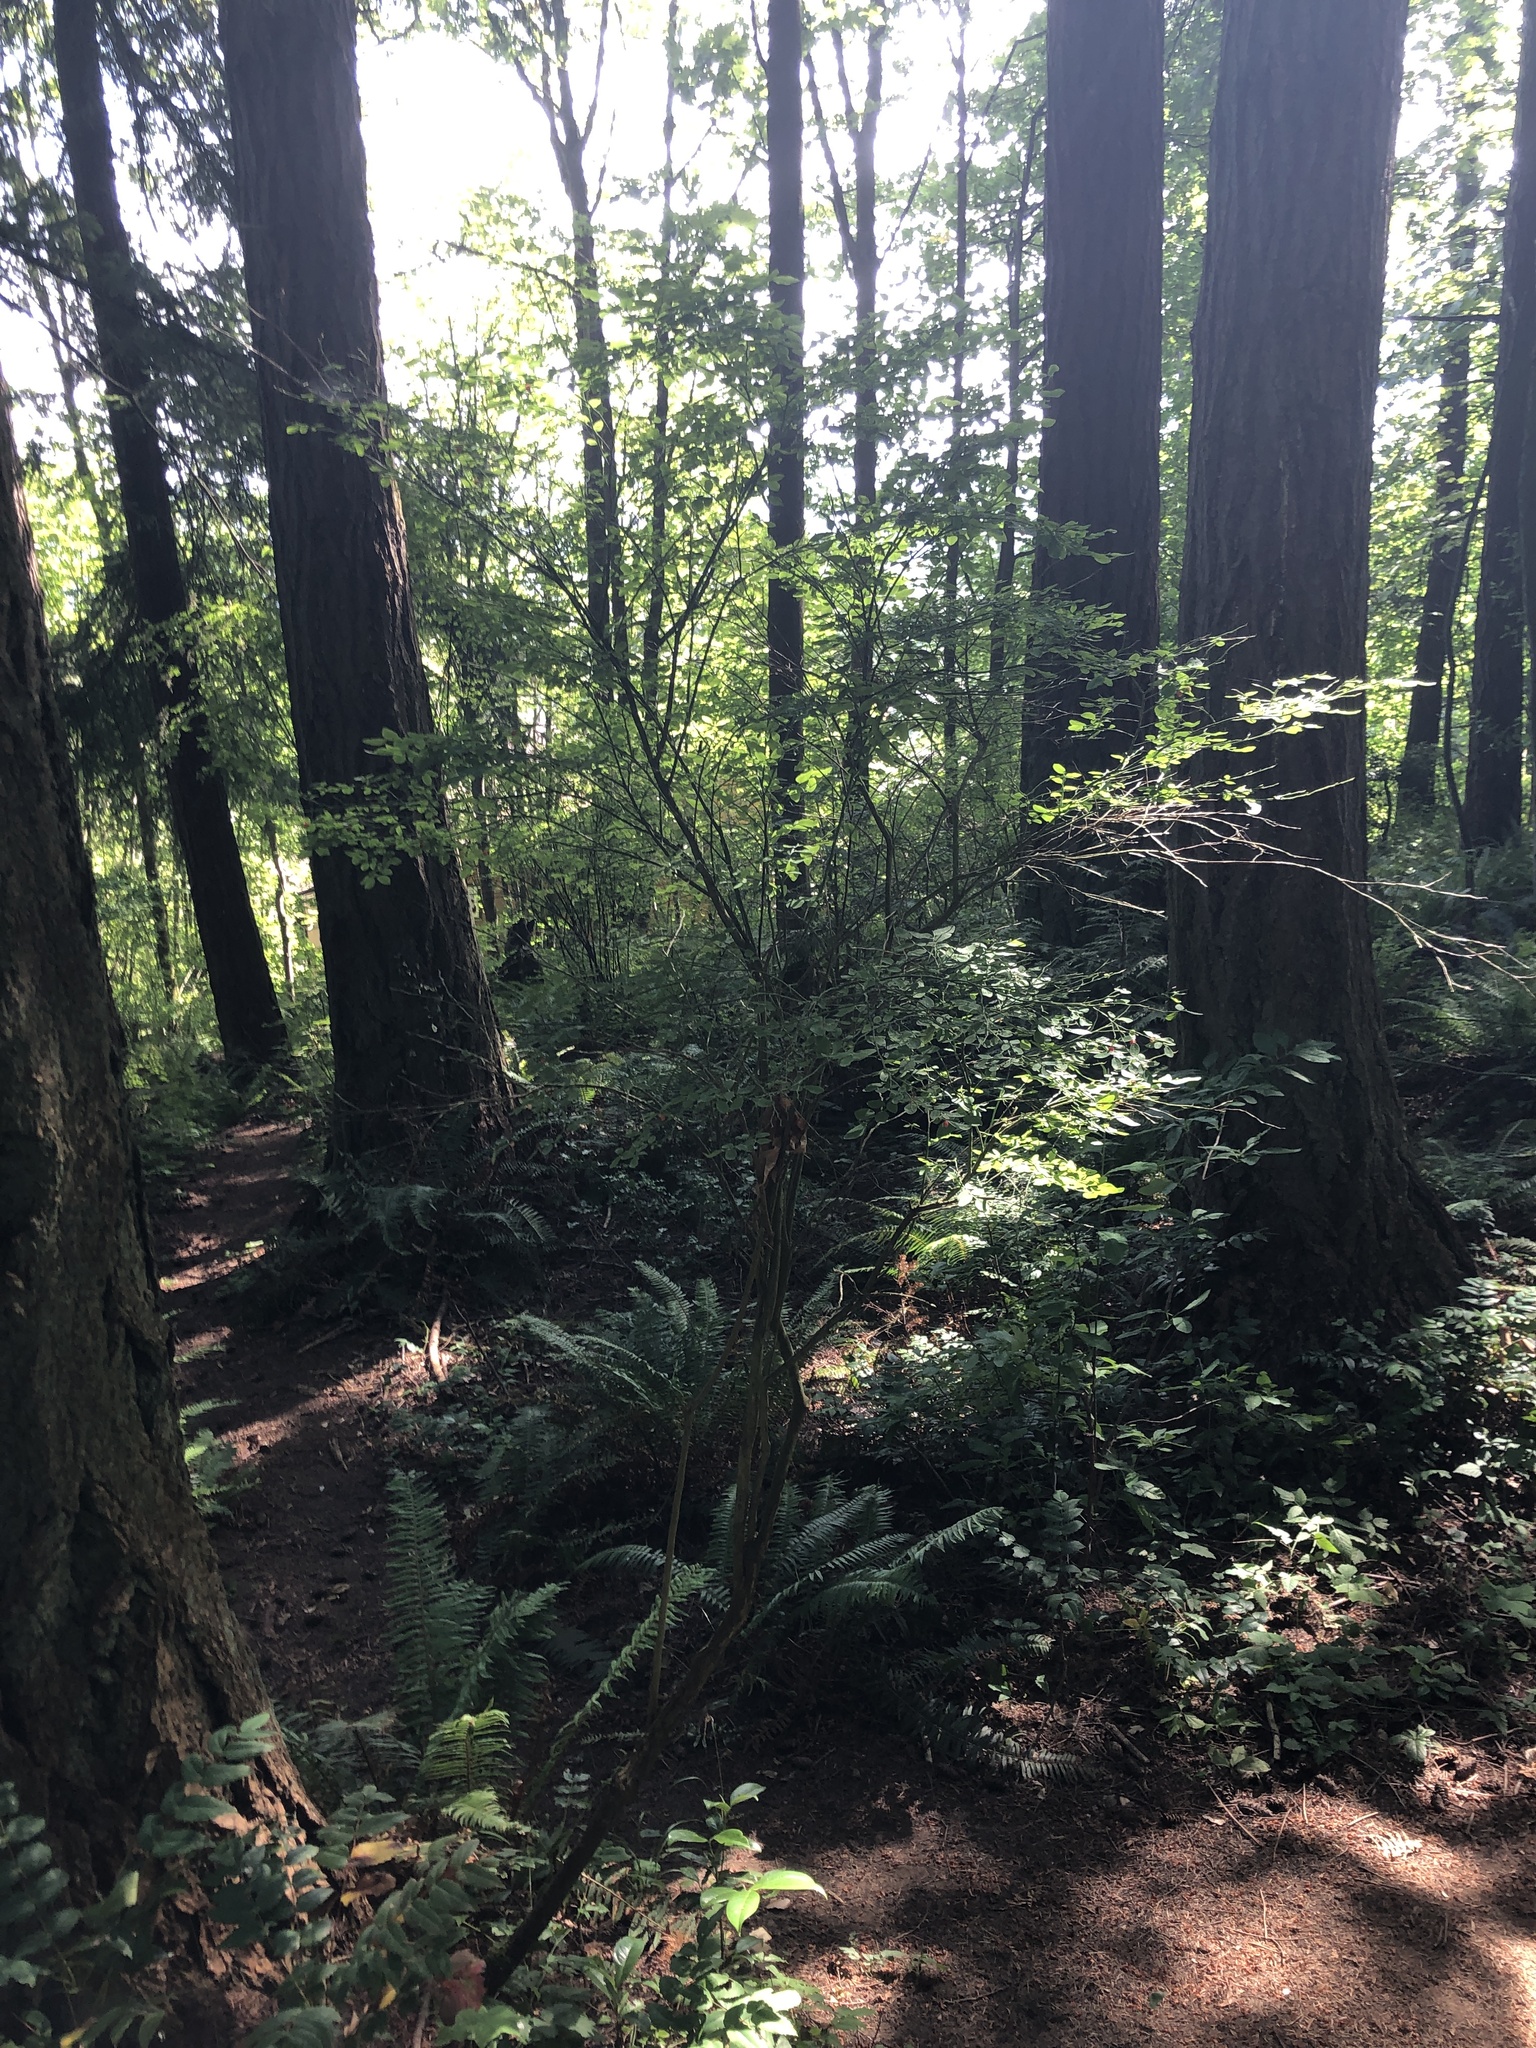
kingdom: Plantae
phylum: Tracheophyta
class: Magnoliopsida
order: Ericales
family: Ericaceae
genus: Vaccinium
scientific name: Vaccinium parvifolium
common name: Red-huckleberry
